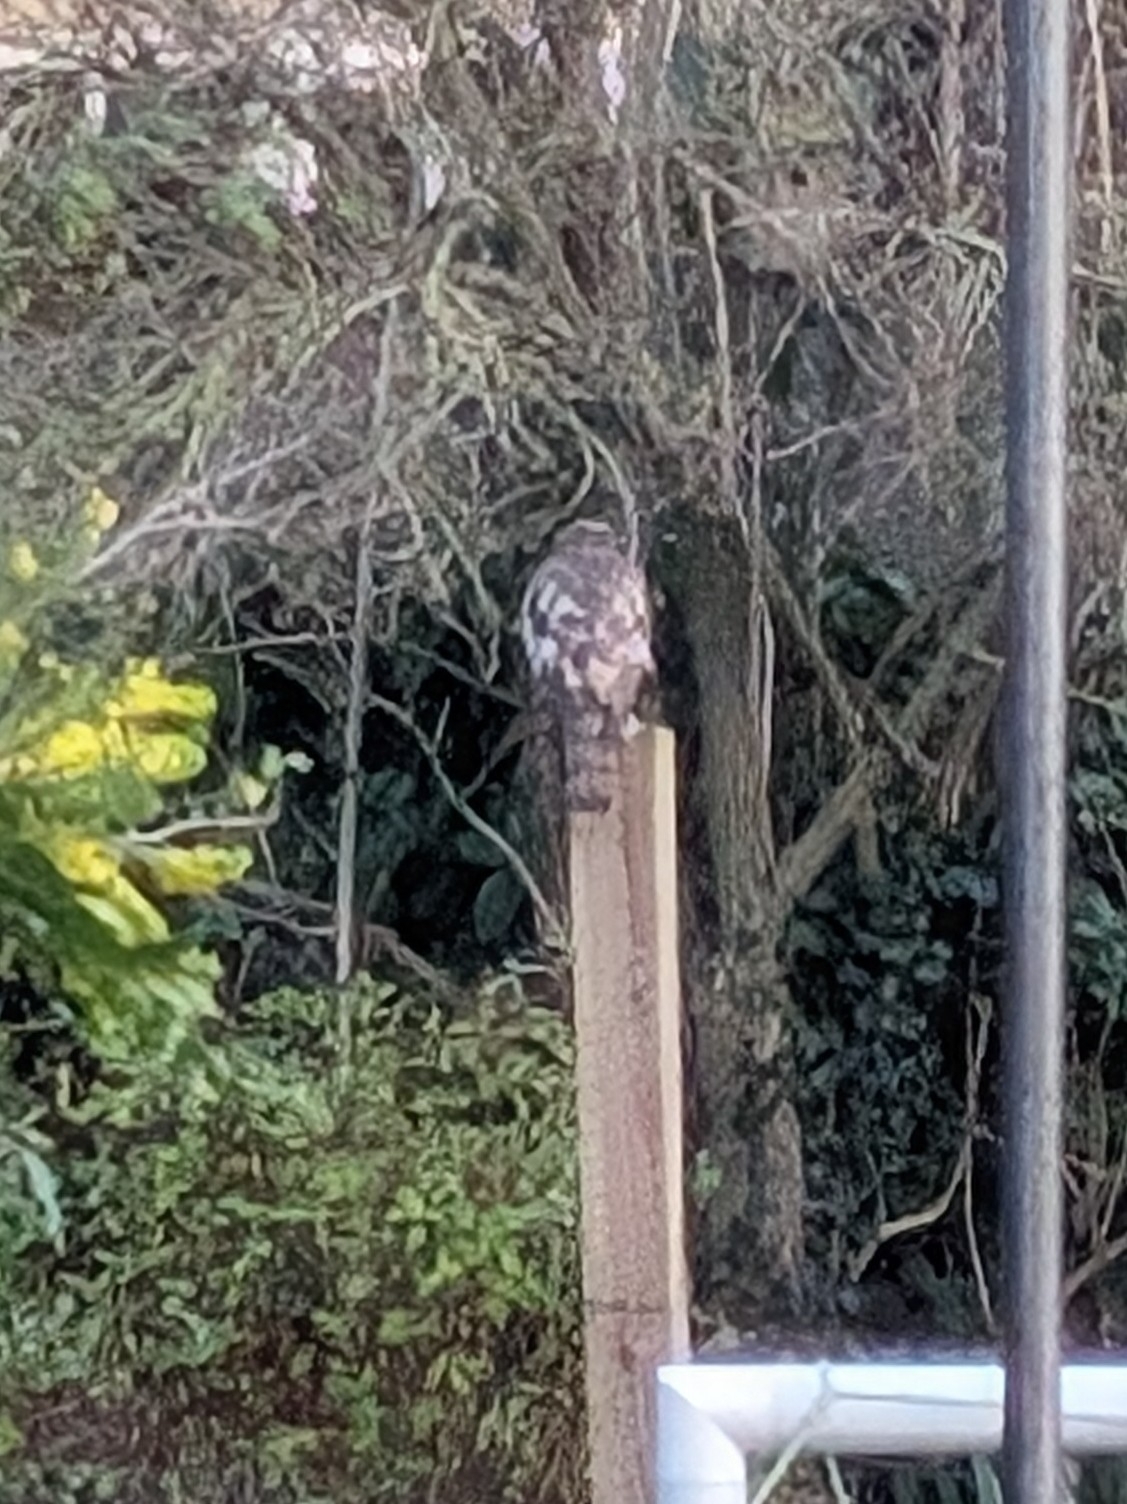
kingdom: Animalia
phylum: Chordata
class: Aves
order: Accipitriformes
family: Accipitridae
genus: Accipiter
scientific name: Accipiter nisus
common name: Eurasian sparrowhawk
